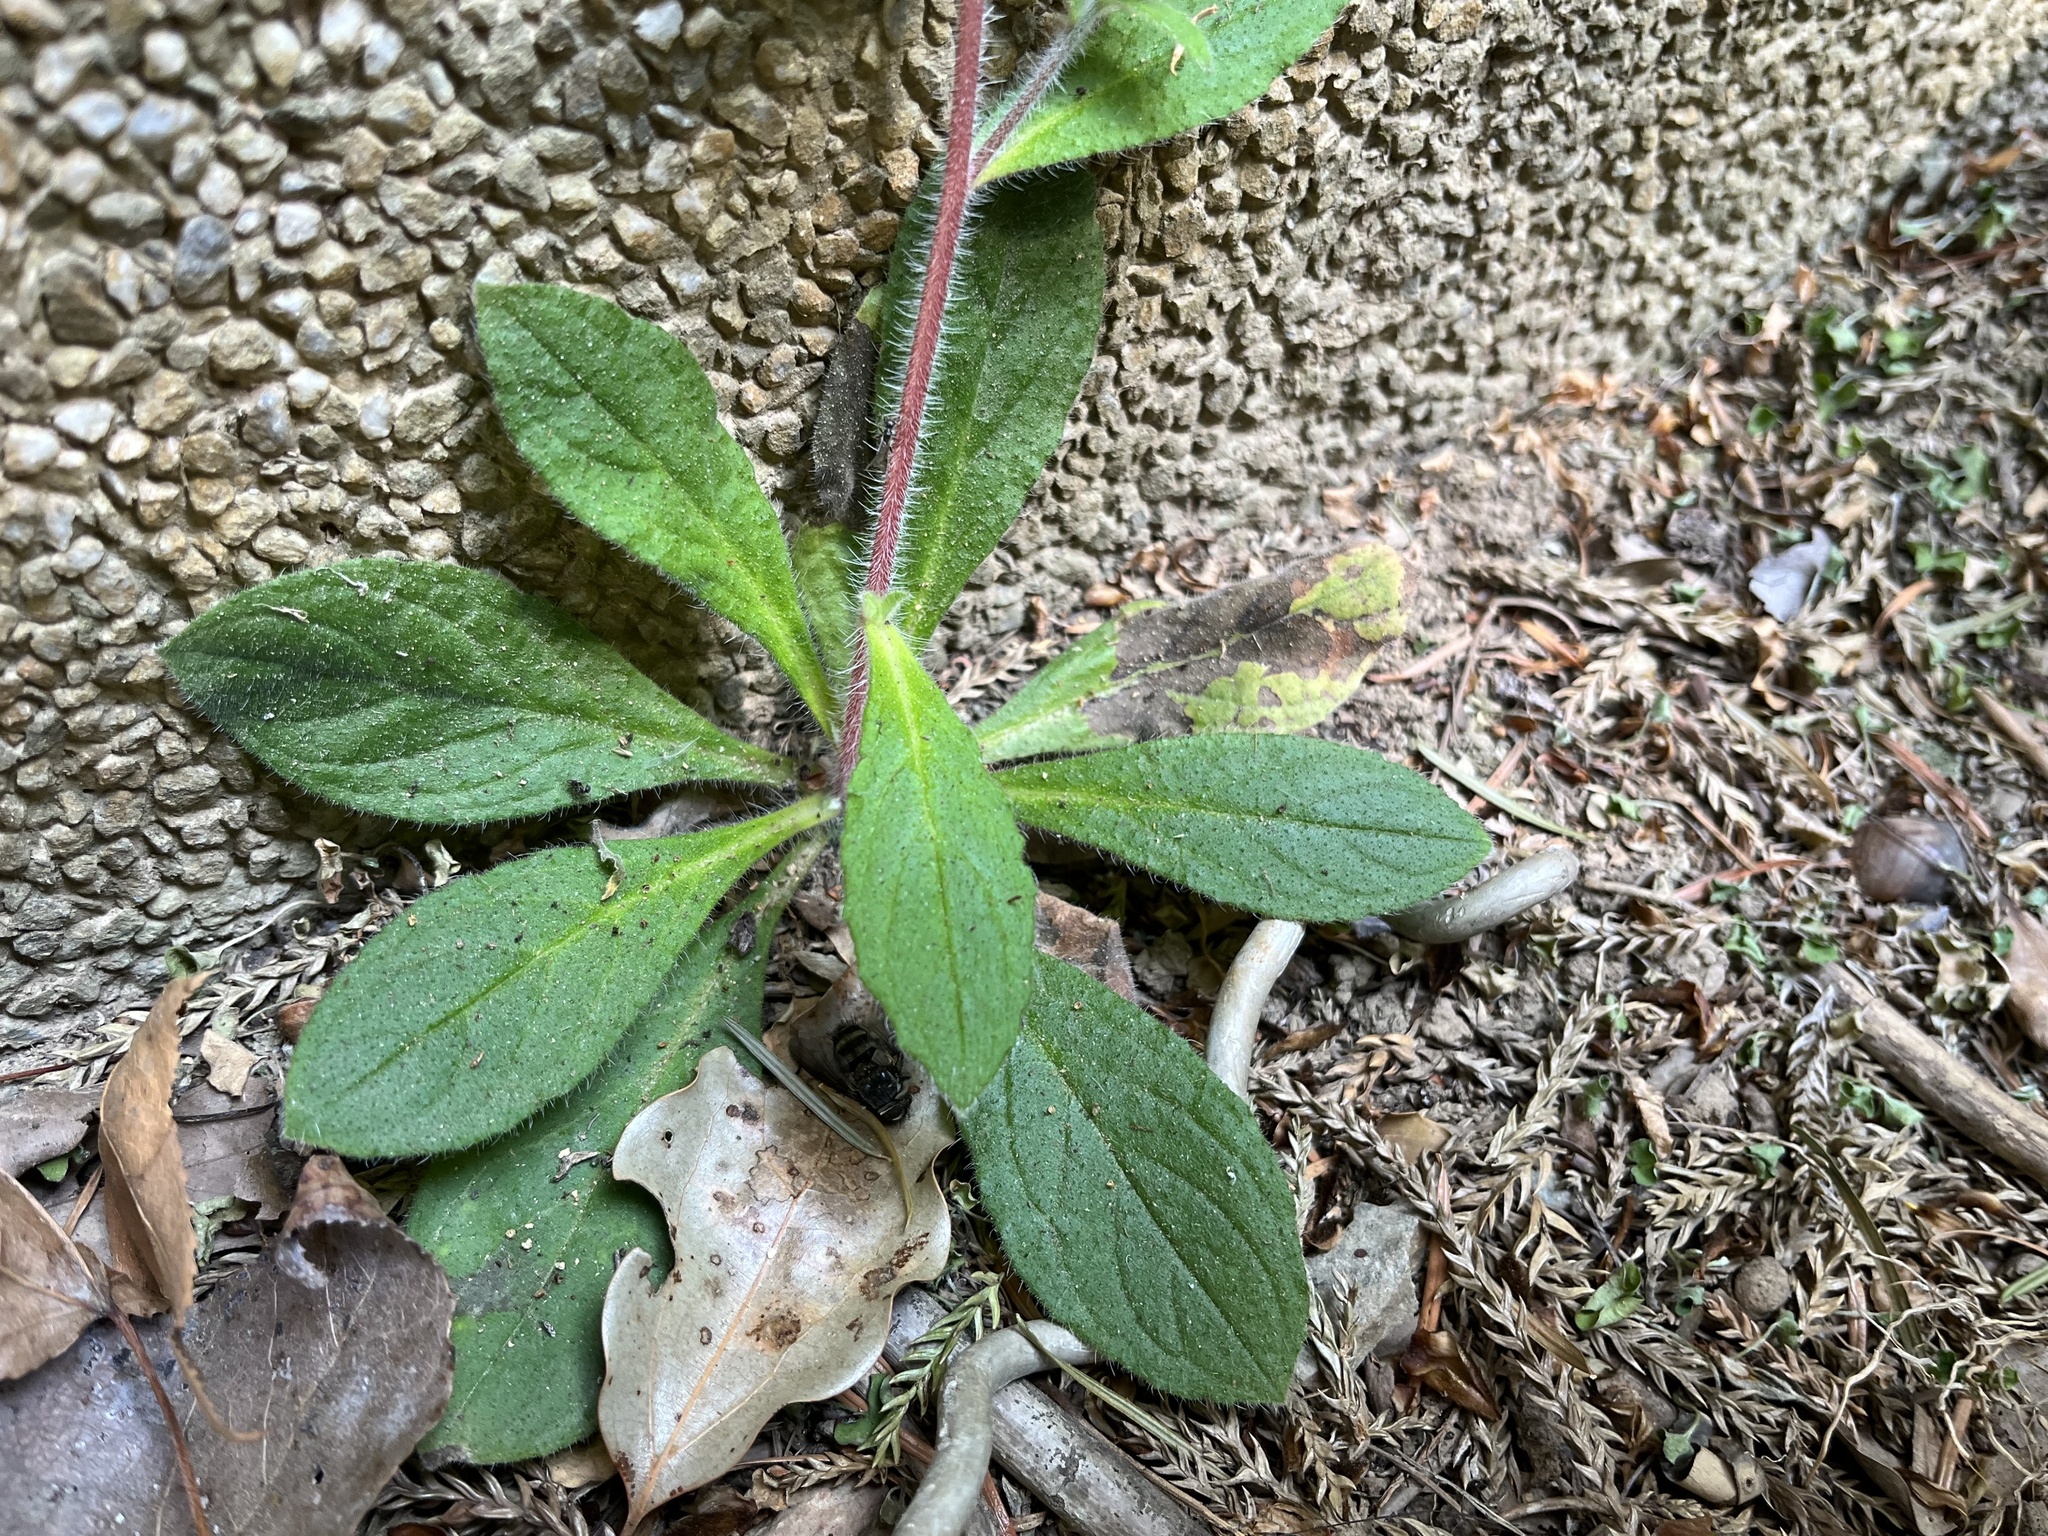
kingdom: Plantae
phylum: Tracheophyta
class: Magnoliopsida
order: Boraginales
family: Boraginaceae
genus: Thyrocarpus
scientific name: Thyrocarpus sampsonii
